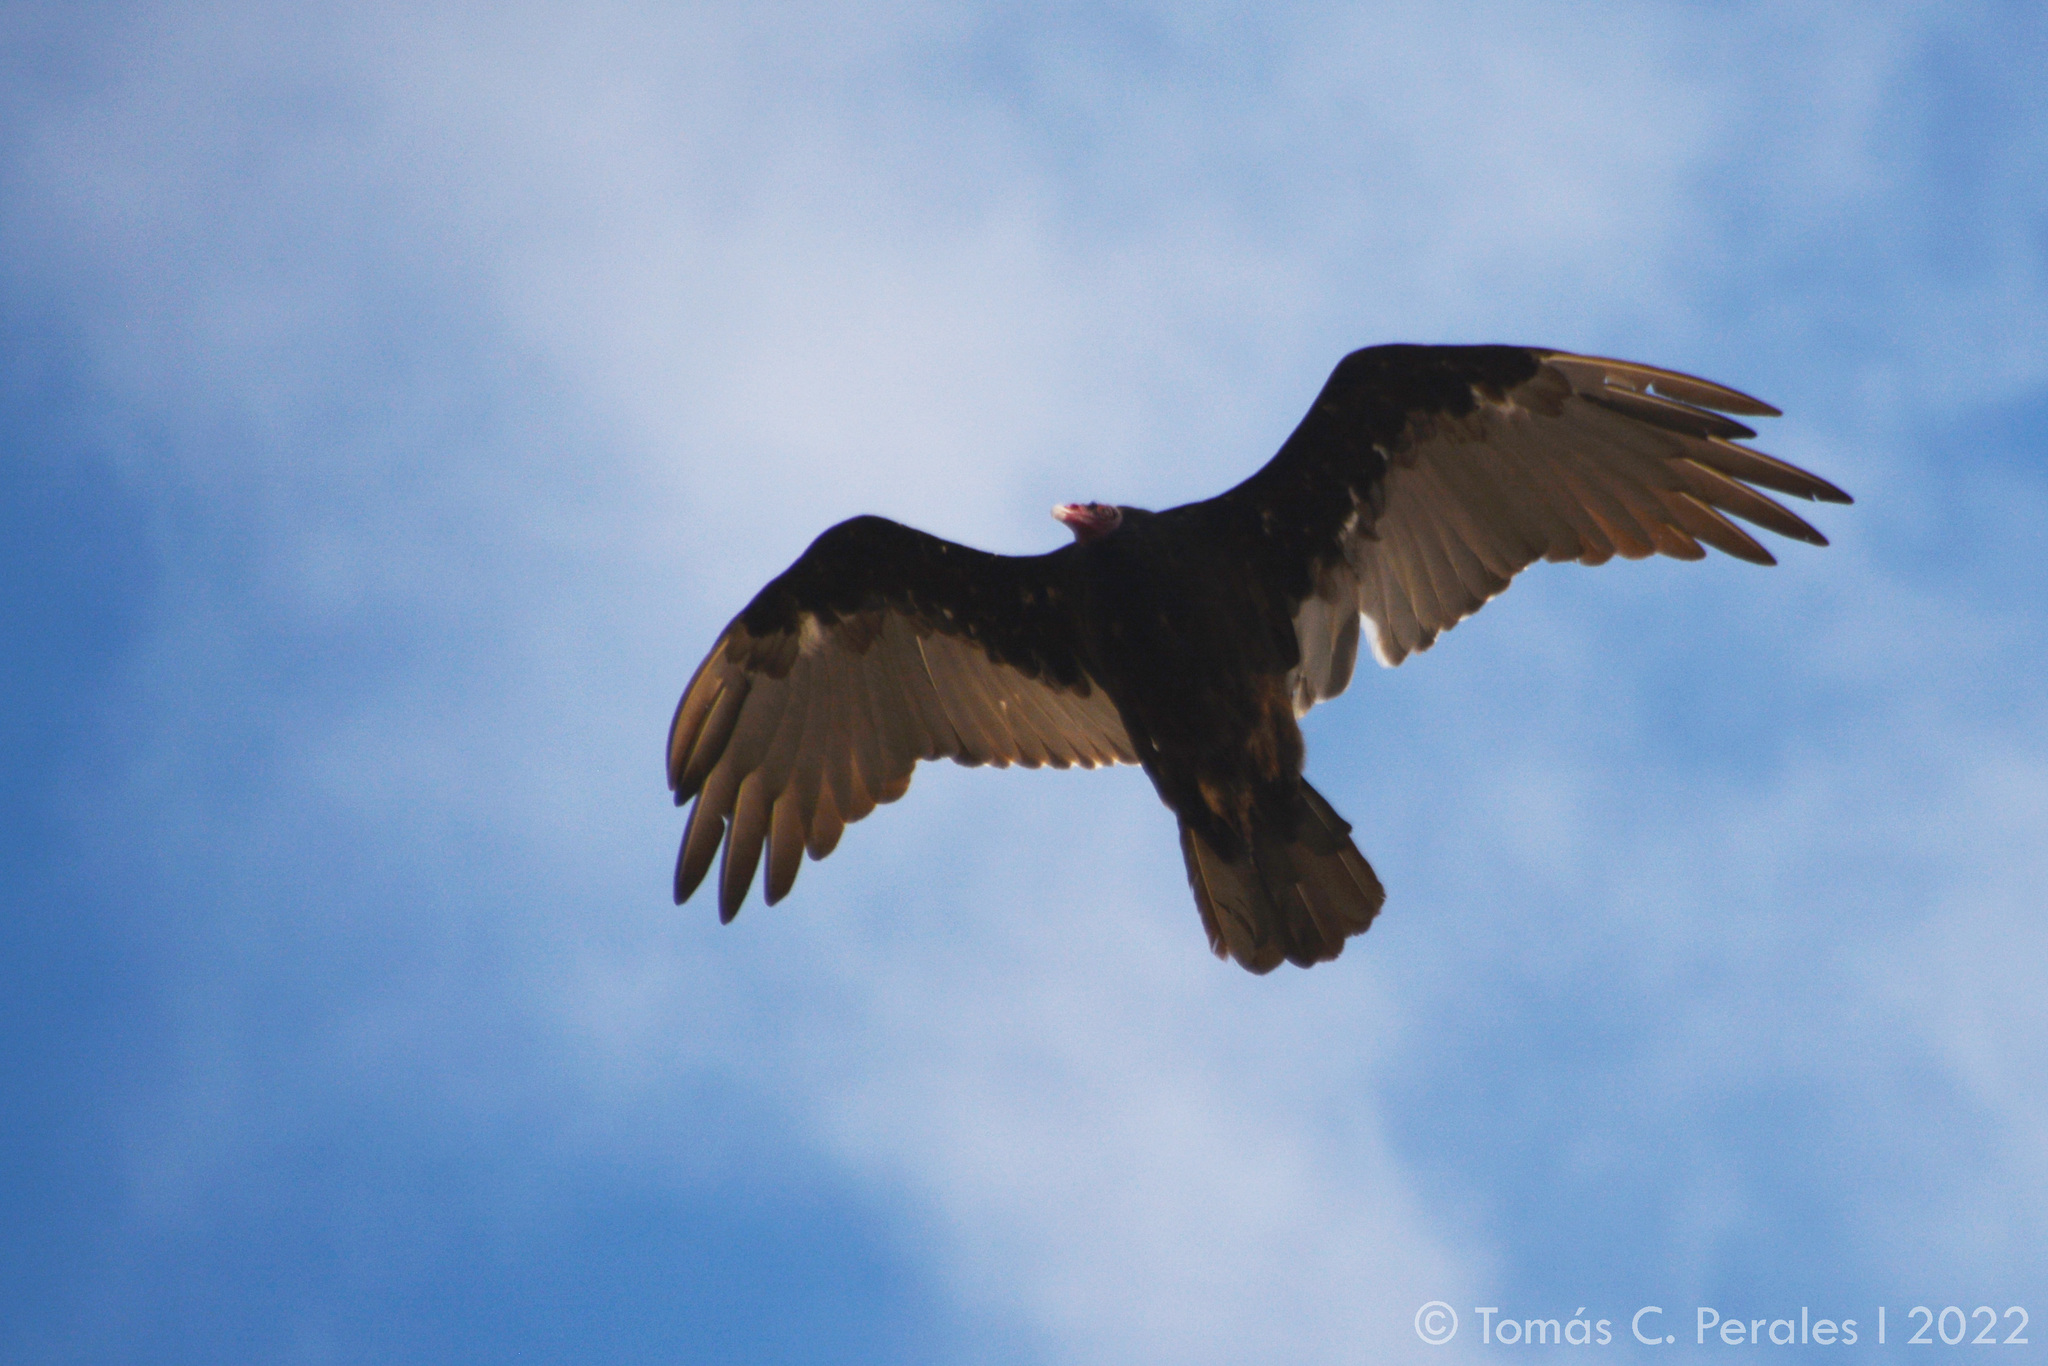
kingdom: Animalia
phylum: Chordata
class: Aves
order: Accipitriformes
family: Cathartidae
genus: Cathartes
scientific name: Cathartes aura
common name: Turkey vulture
